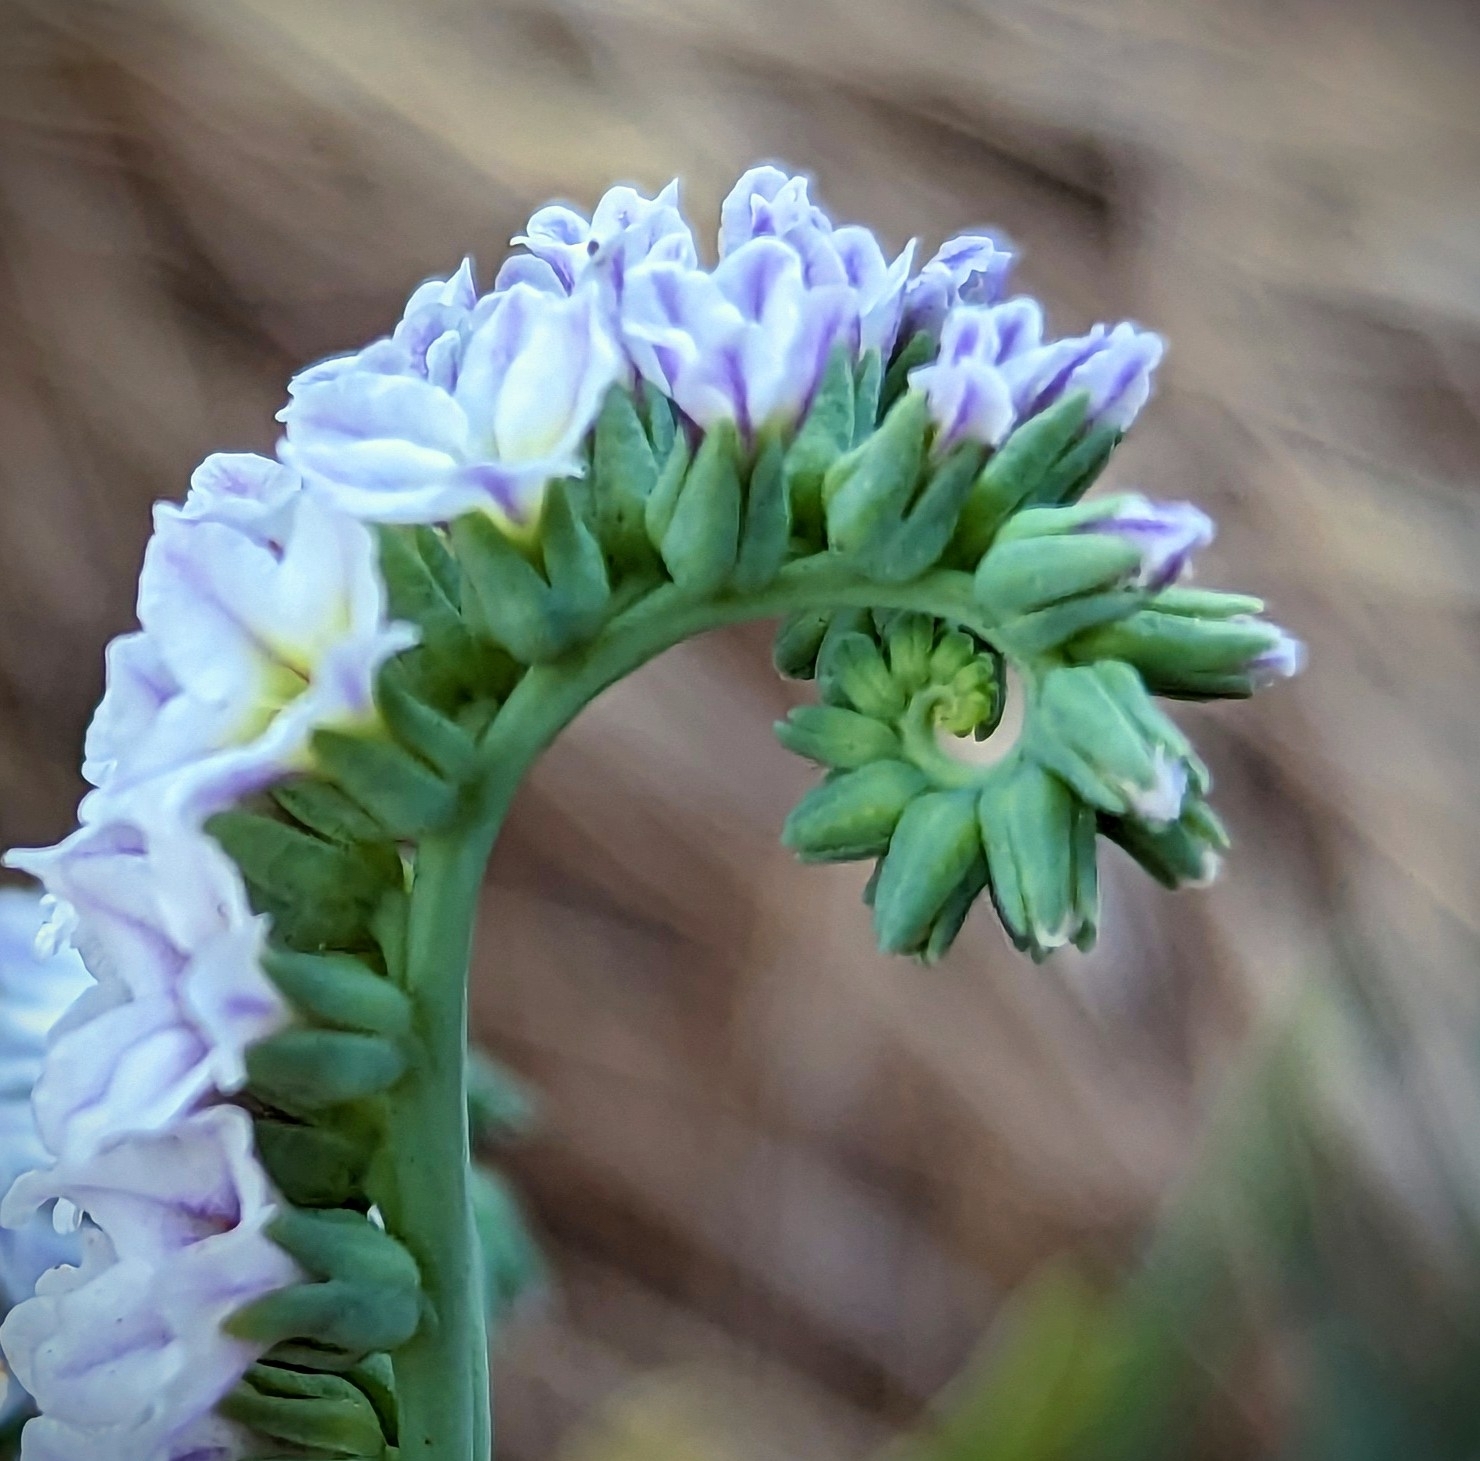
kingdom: Plantae
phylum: Tracheophyta
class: Magnoliopsida
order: Boraginales
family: Heliotropiaceae
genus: Heliotropium
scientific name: Heliotropium curassavicum
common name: Seaside heliotrope
